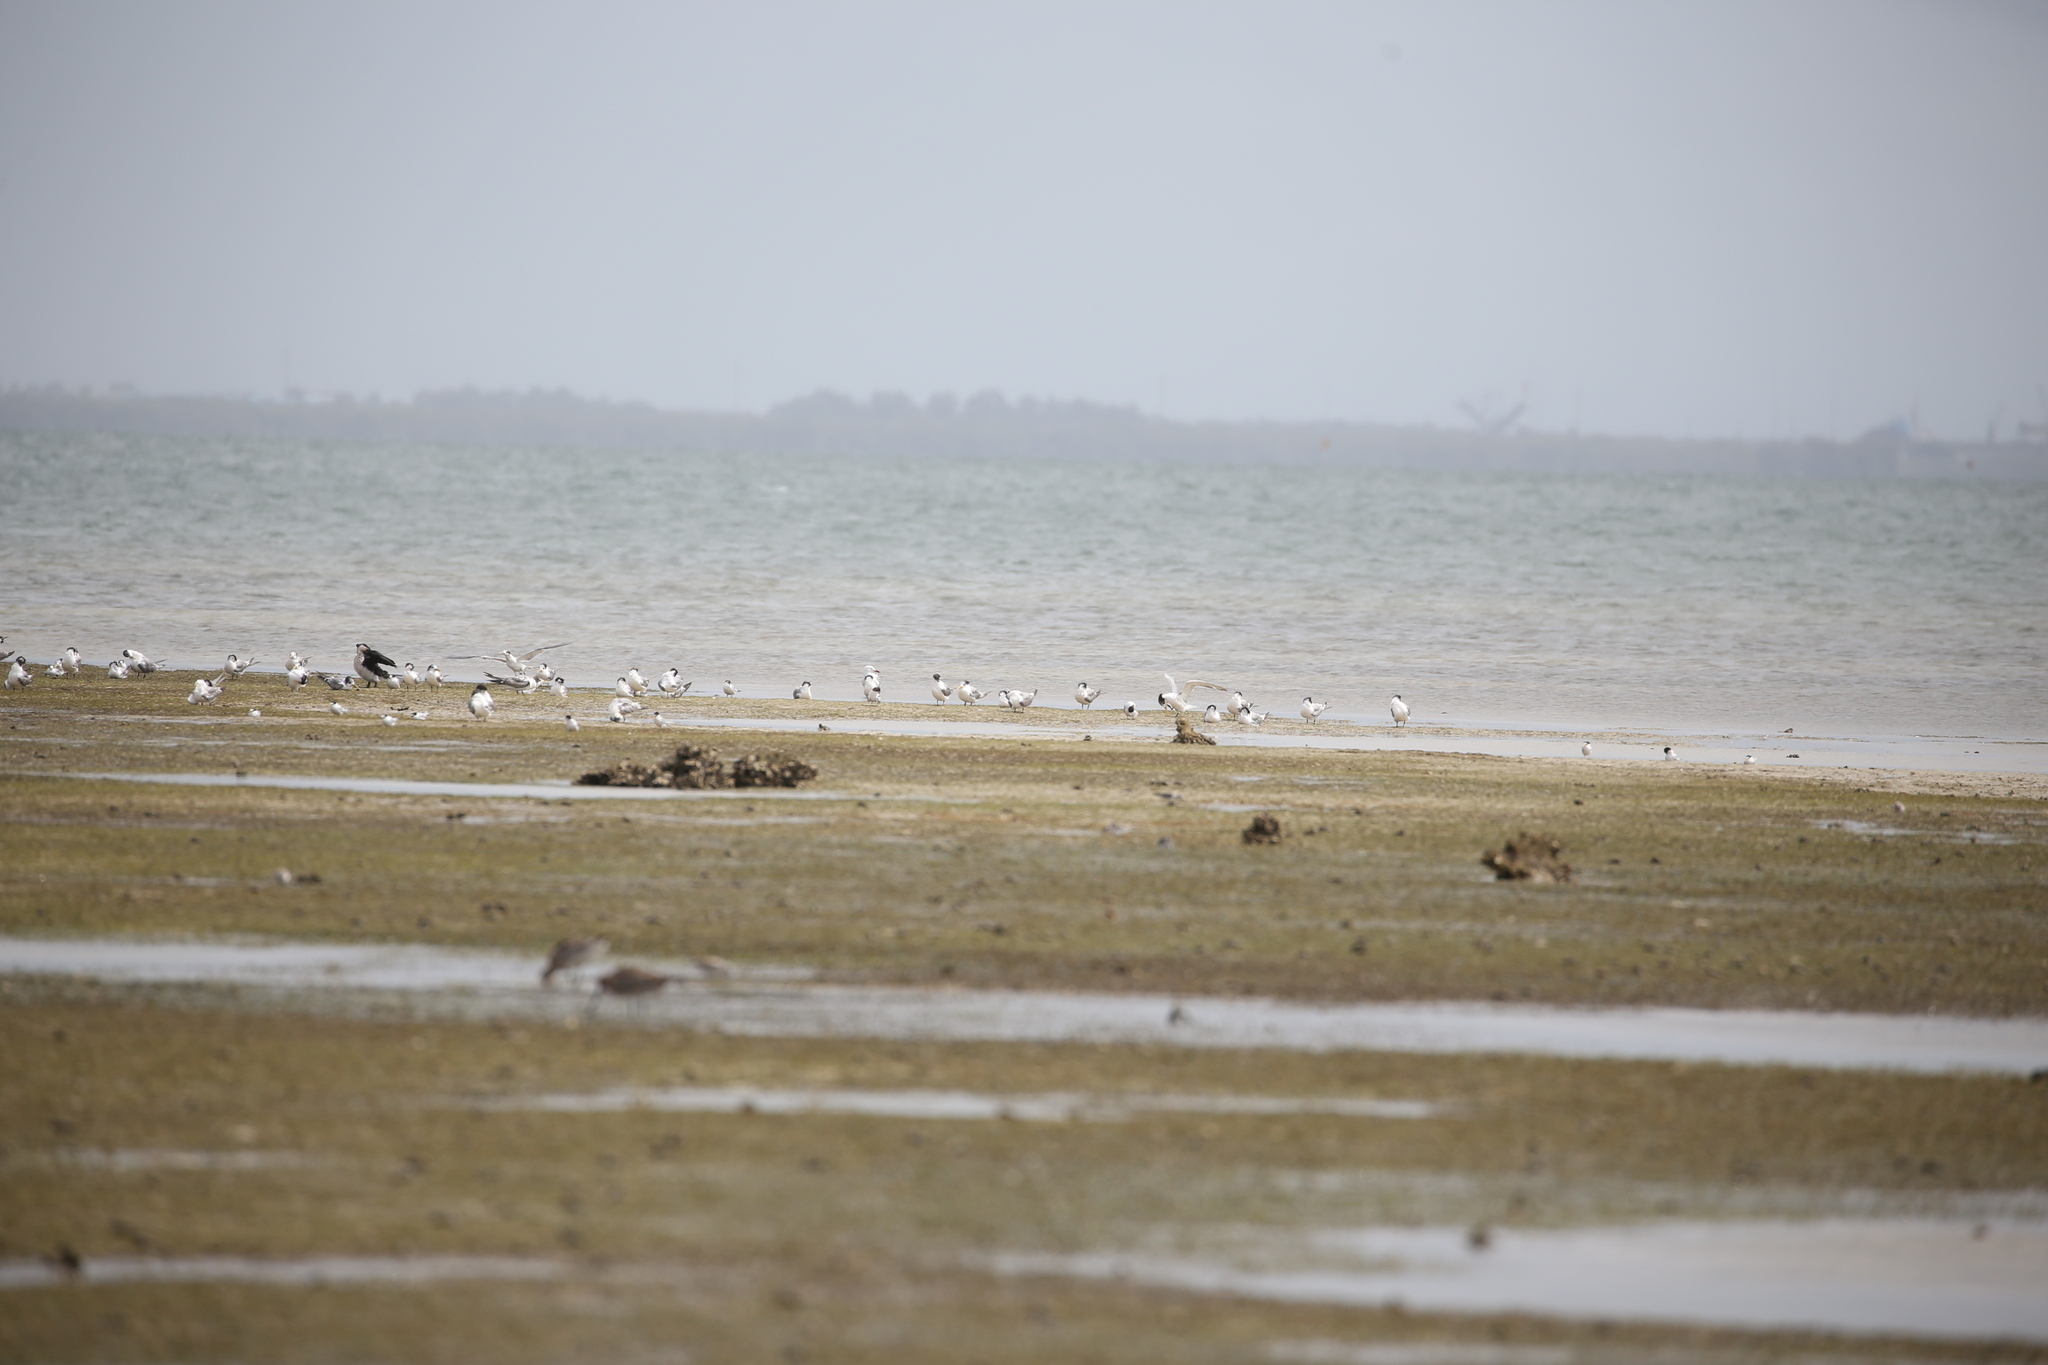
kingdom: Animalia
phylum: Chordata
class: Aves
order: Charadriiformes
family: Laridae
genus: Thalasseus
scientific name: Thalasseus bergii
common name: Greater crested tern
